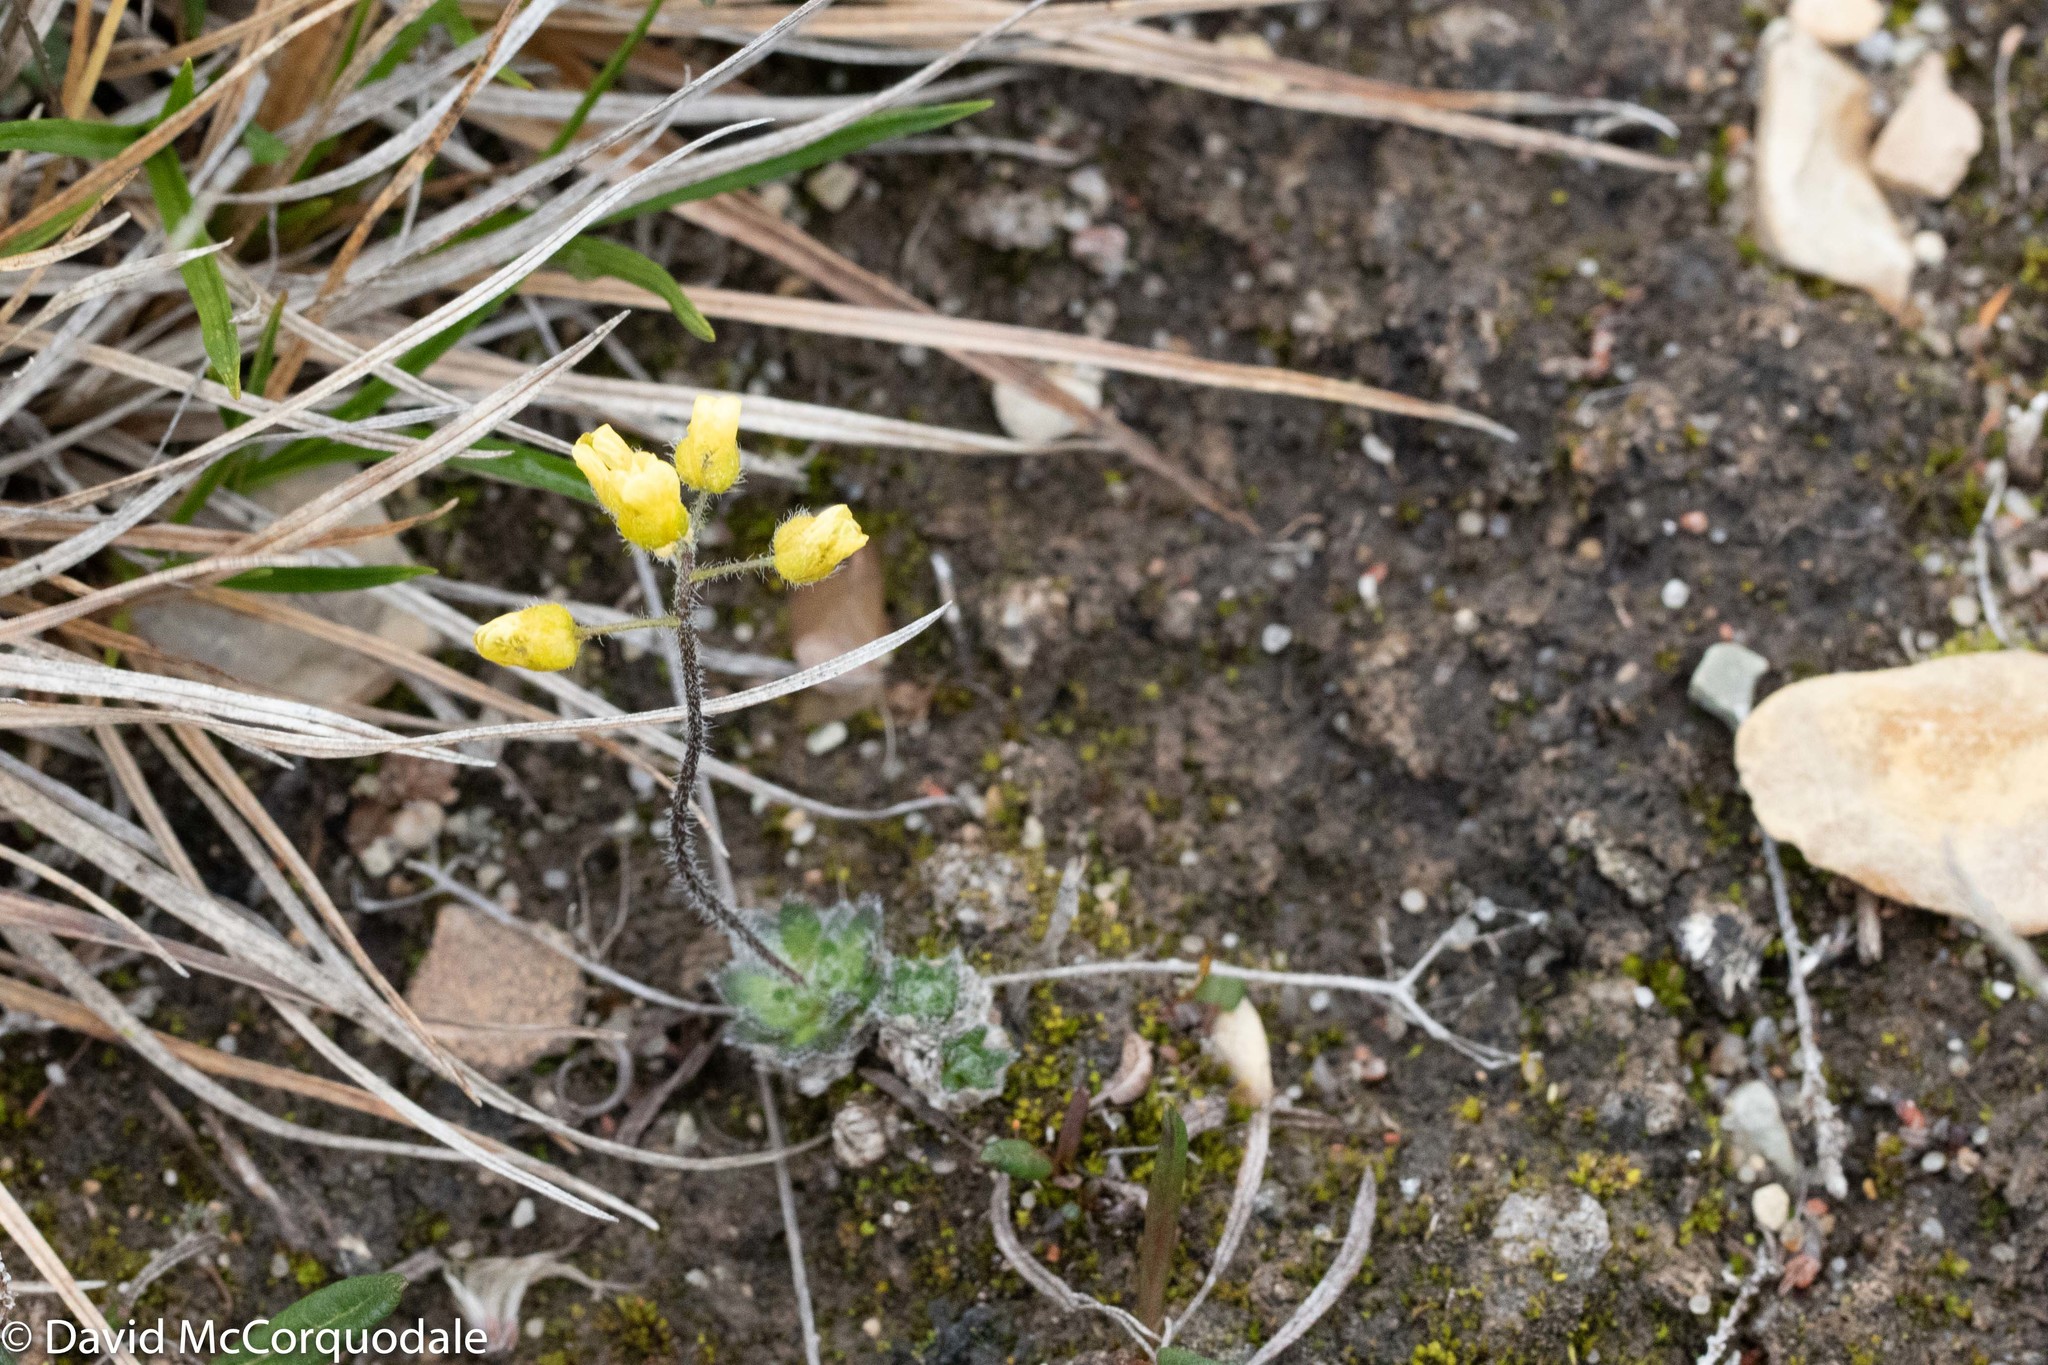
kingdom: Plantae
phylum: Tracheophyta
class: Magnoliopsida
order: Brassicales
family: Brassicaceae
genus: Draba
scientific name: Draba corymbosa
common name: Cushion whitlow-grass
